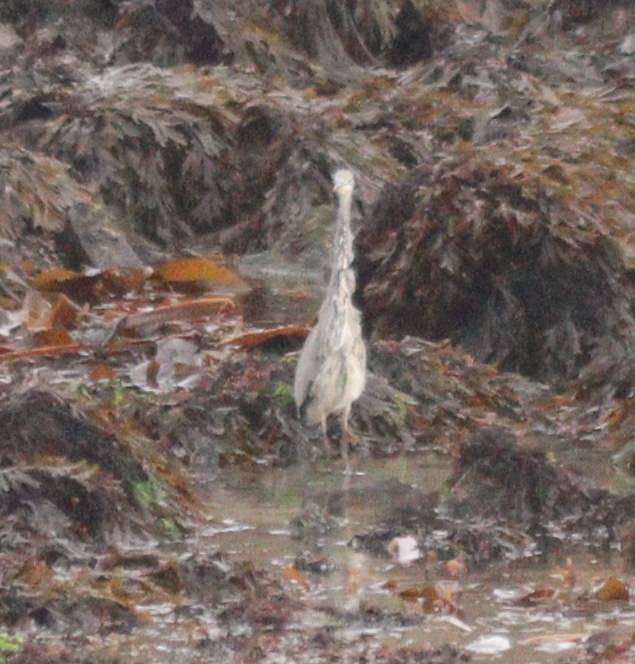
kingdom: Animalia
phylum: Chordata
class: Aves
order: Pelecaniformes
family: Ardeidae
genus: Ardea
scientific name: Ardea cinerea
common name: Grey heron
